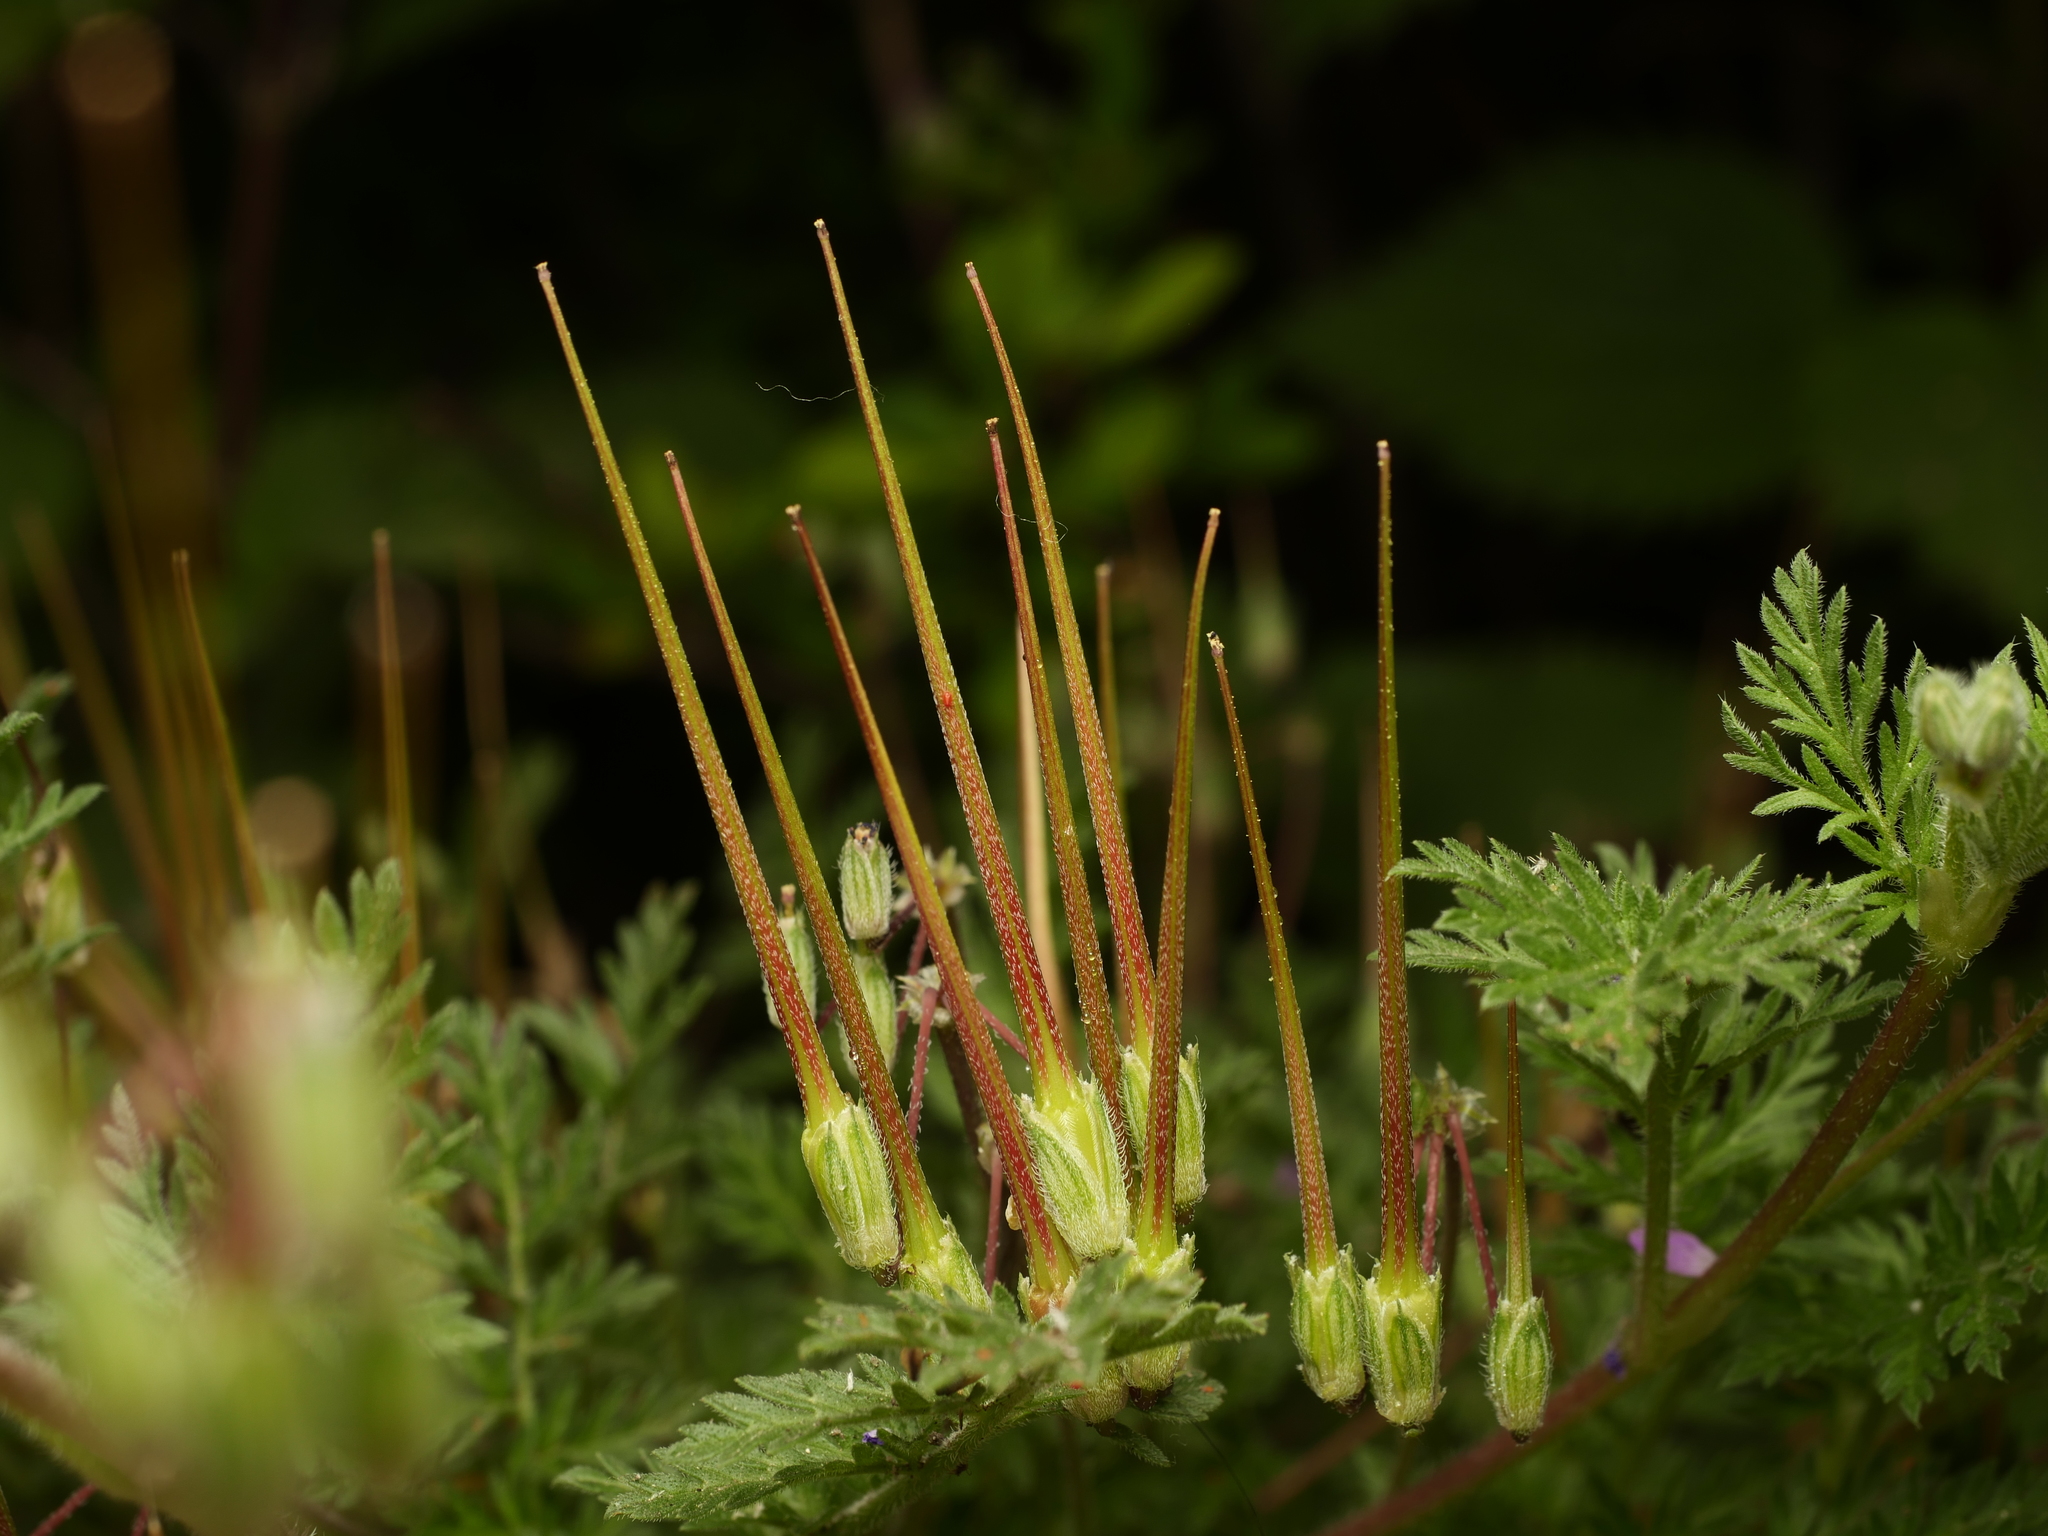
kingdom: Plantae
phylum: Tracheophyta
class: Magnoliopsida
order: Geraniales
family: Geraniaceae
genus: Erodium
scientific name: Erodium cicutarium
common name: Common stork's-bill
